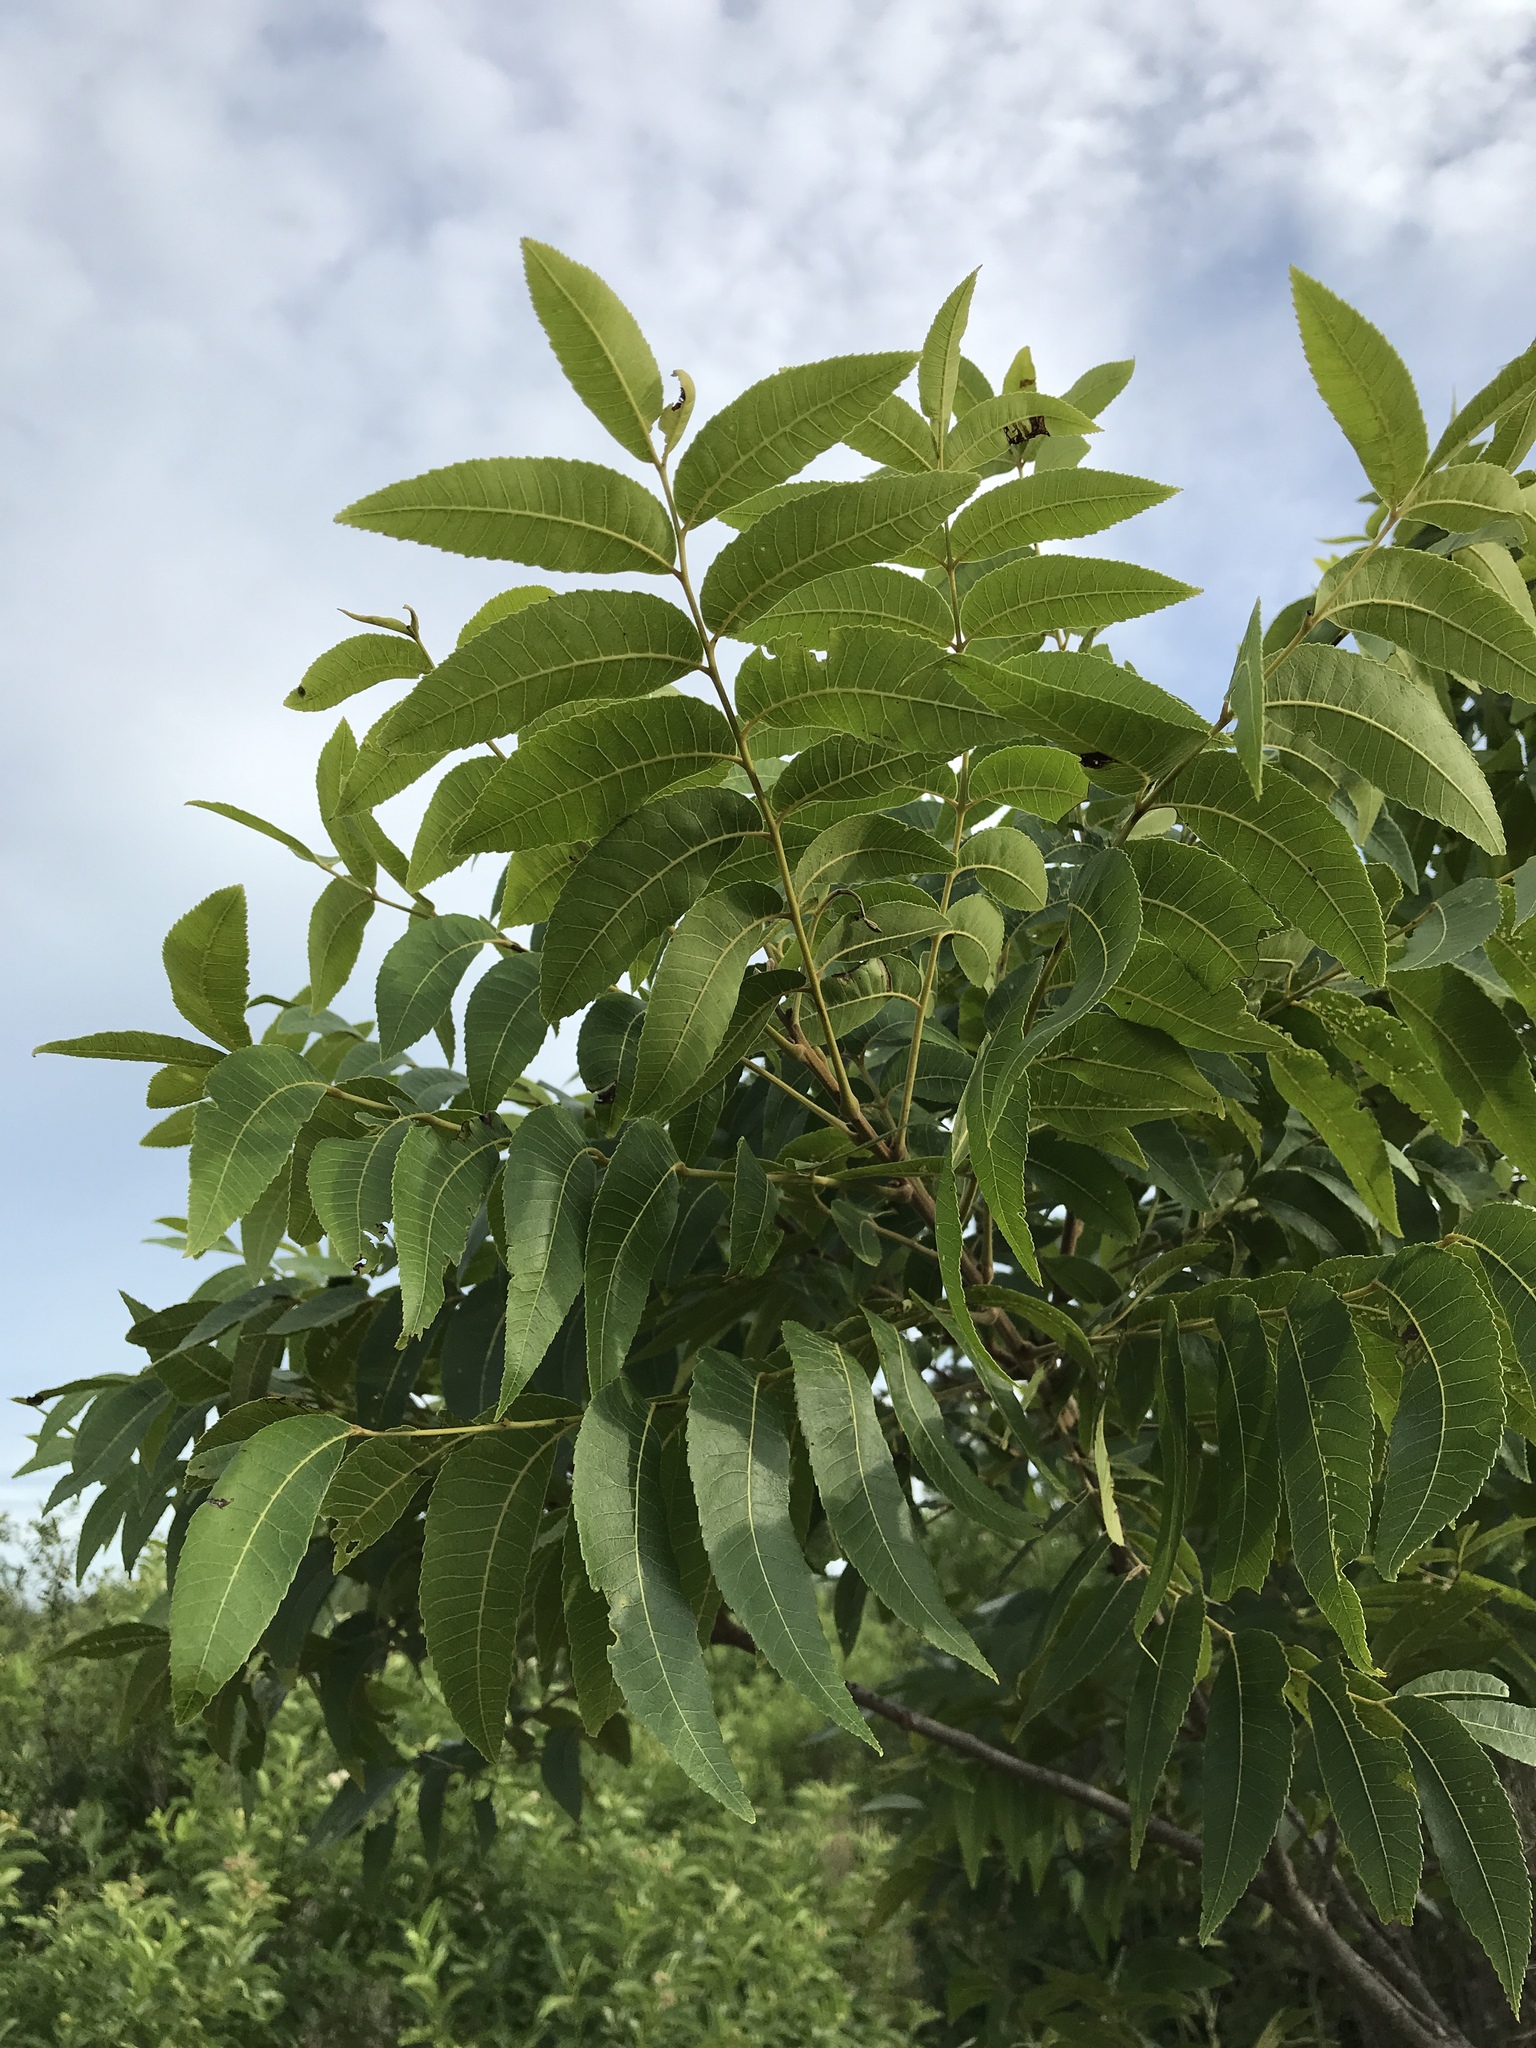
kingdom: Plantae
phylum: Tracheophyta
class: Magnoliopsida
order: Fagales
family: Juglandaceae
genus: Carya
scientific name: Carya illinoinensis
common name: Pecan
